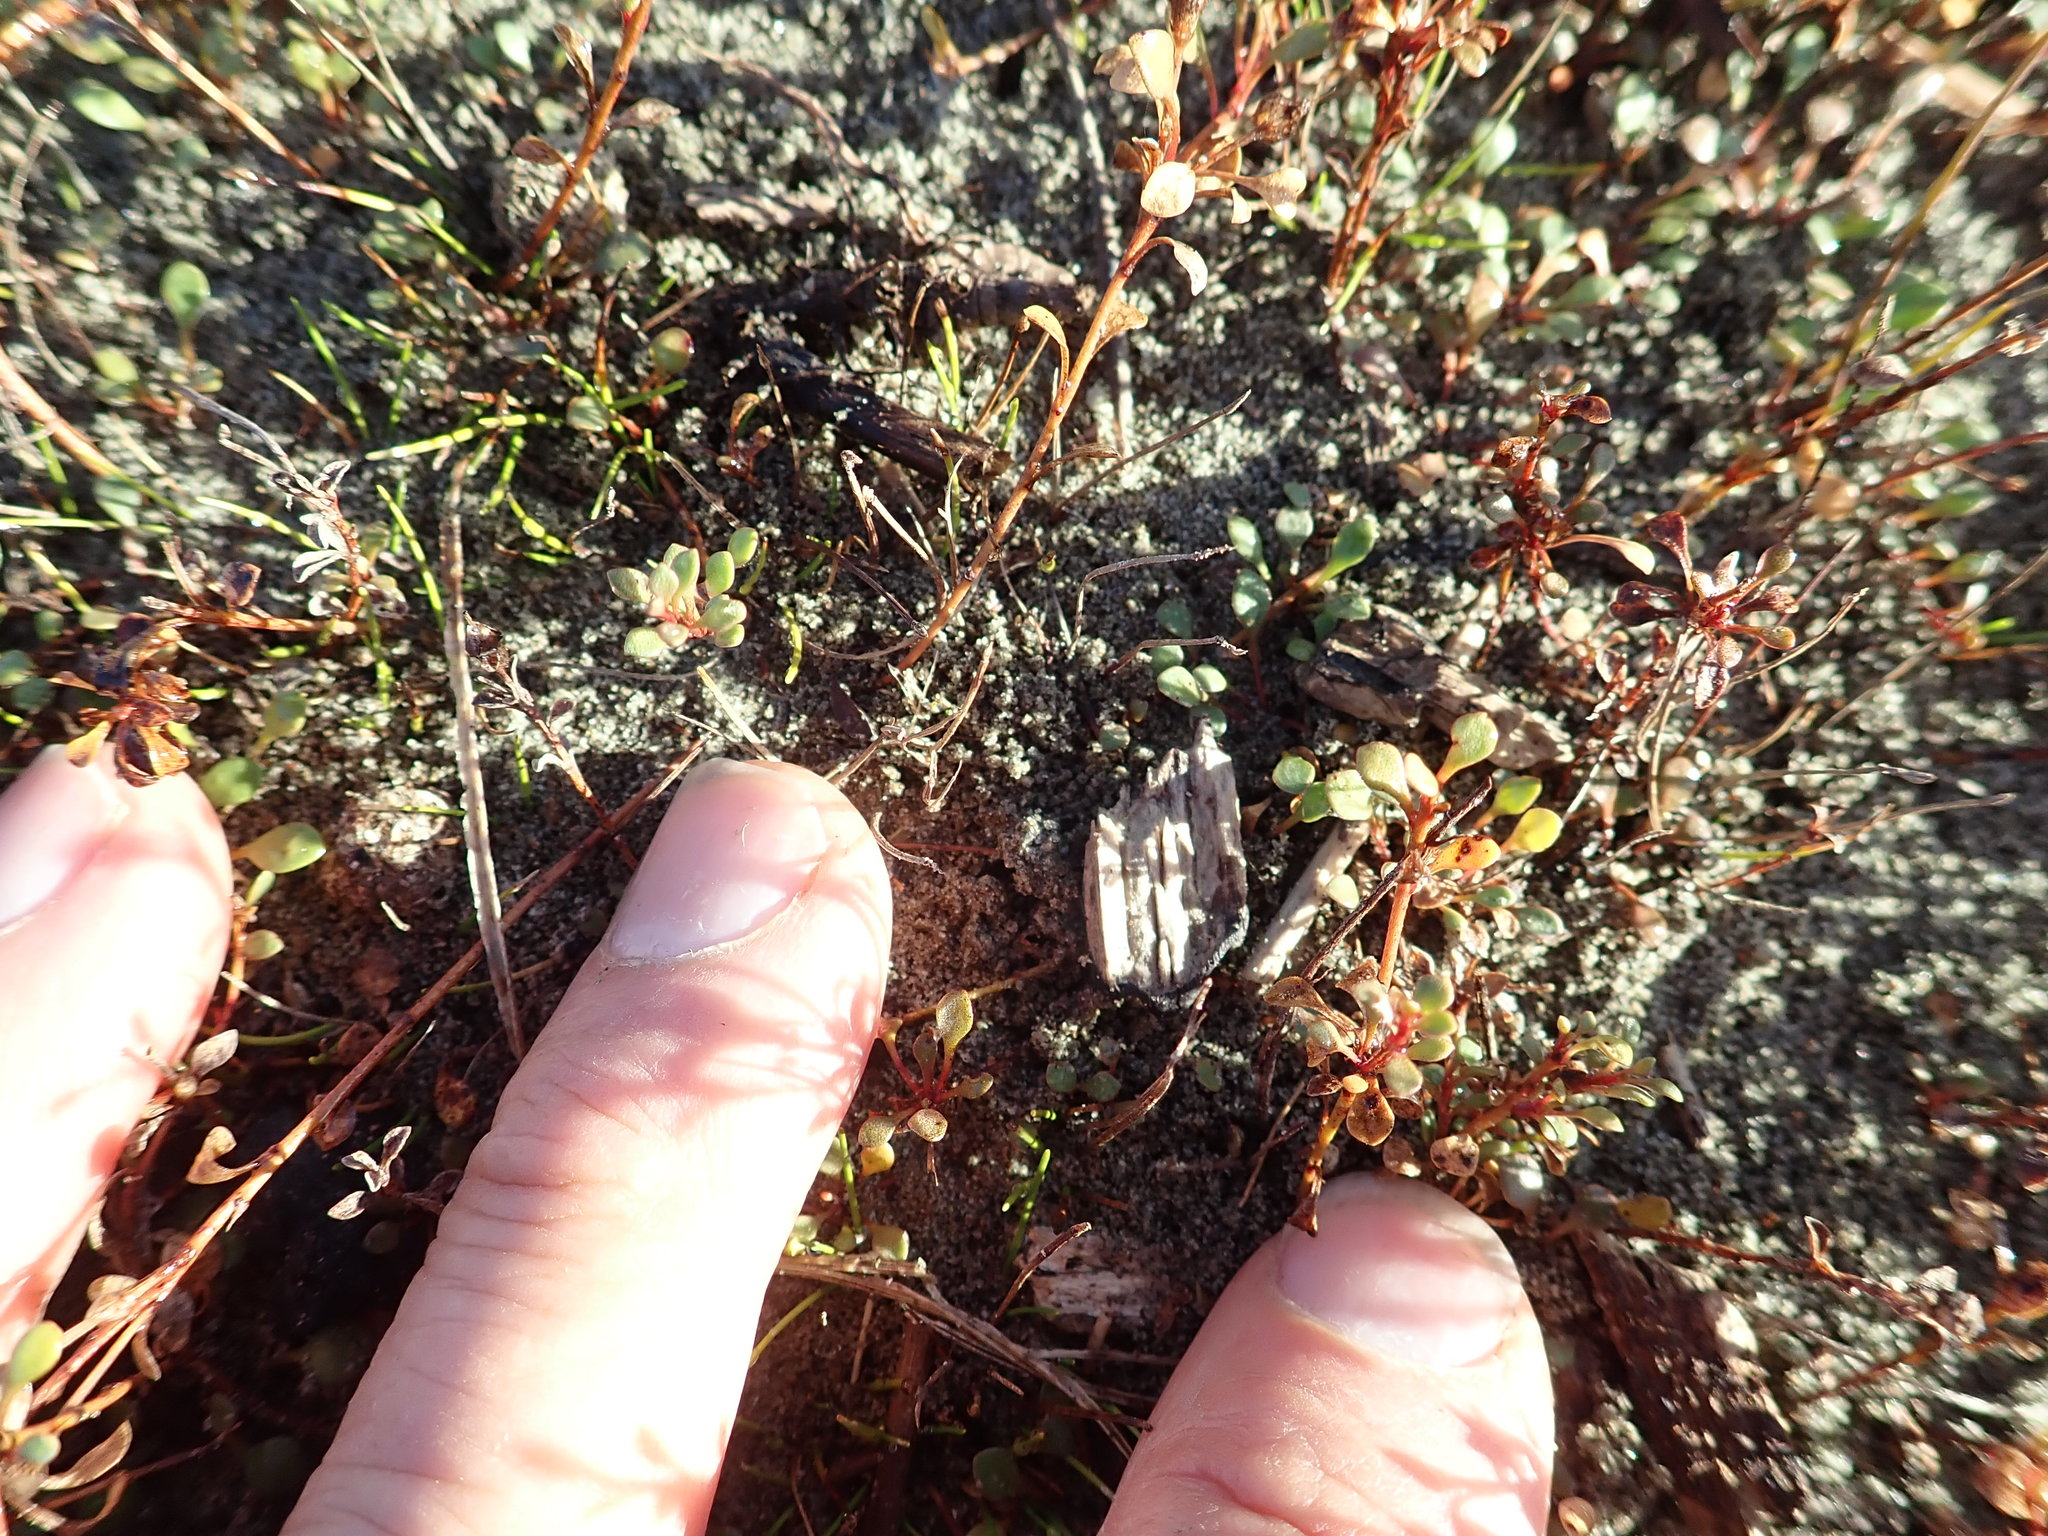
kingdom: Plantae
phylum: Tracheophyta
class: Magnoliopsida
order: Ericales
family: Primulaceae
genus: Samolus
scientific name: Samolus repens
